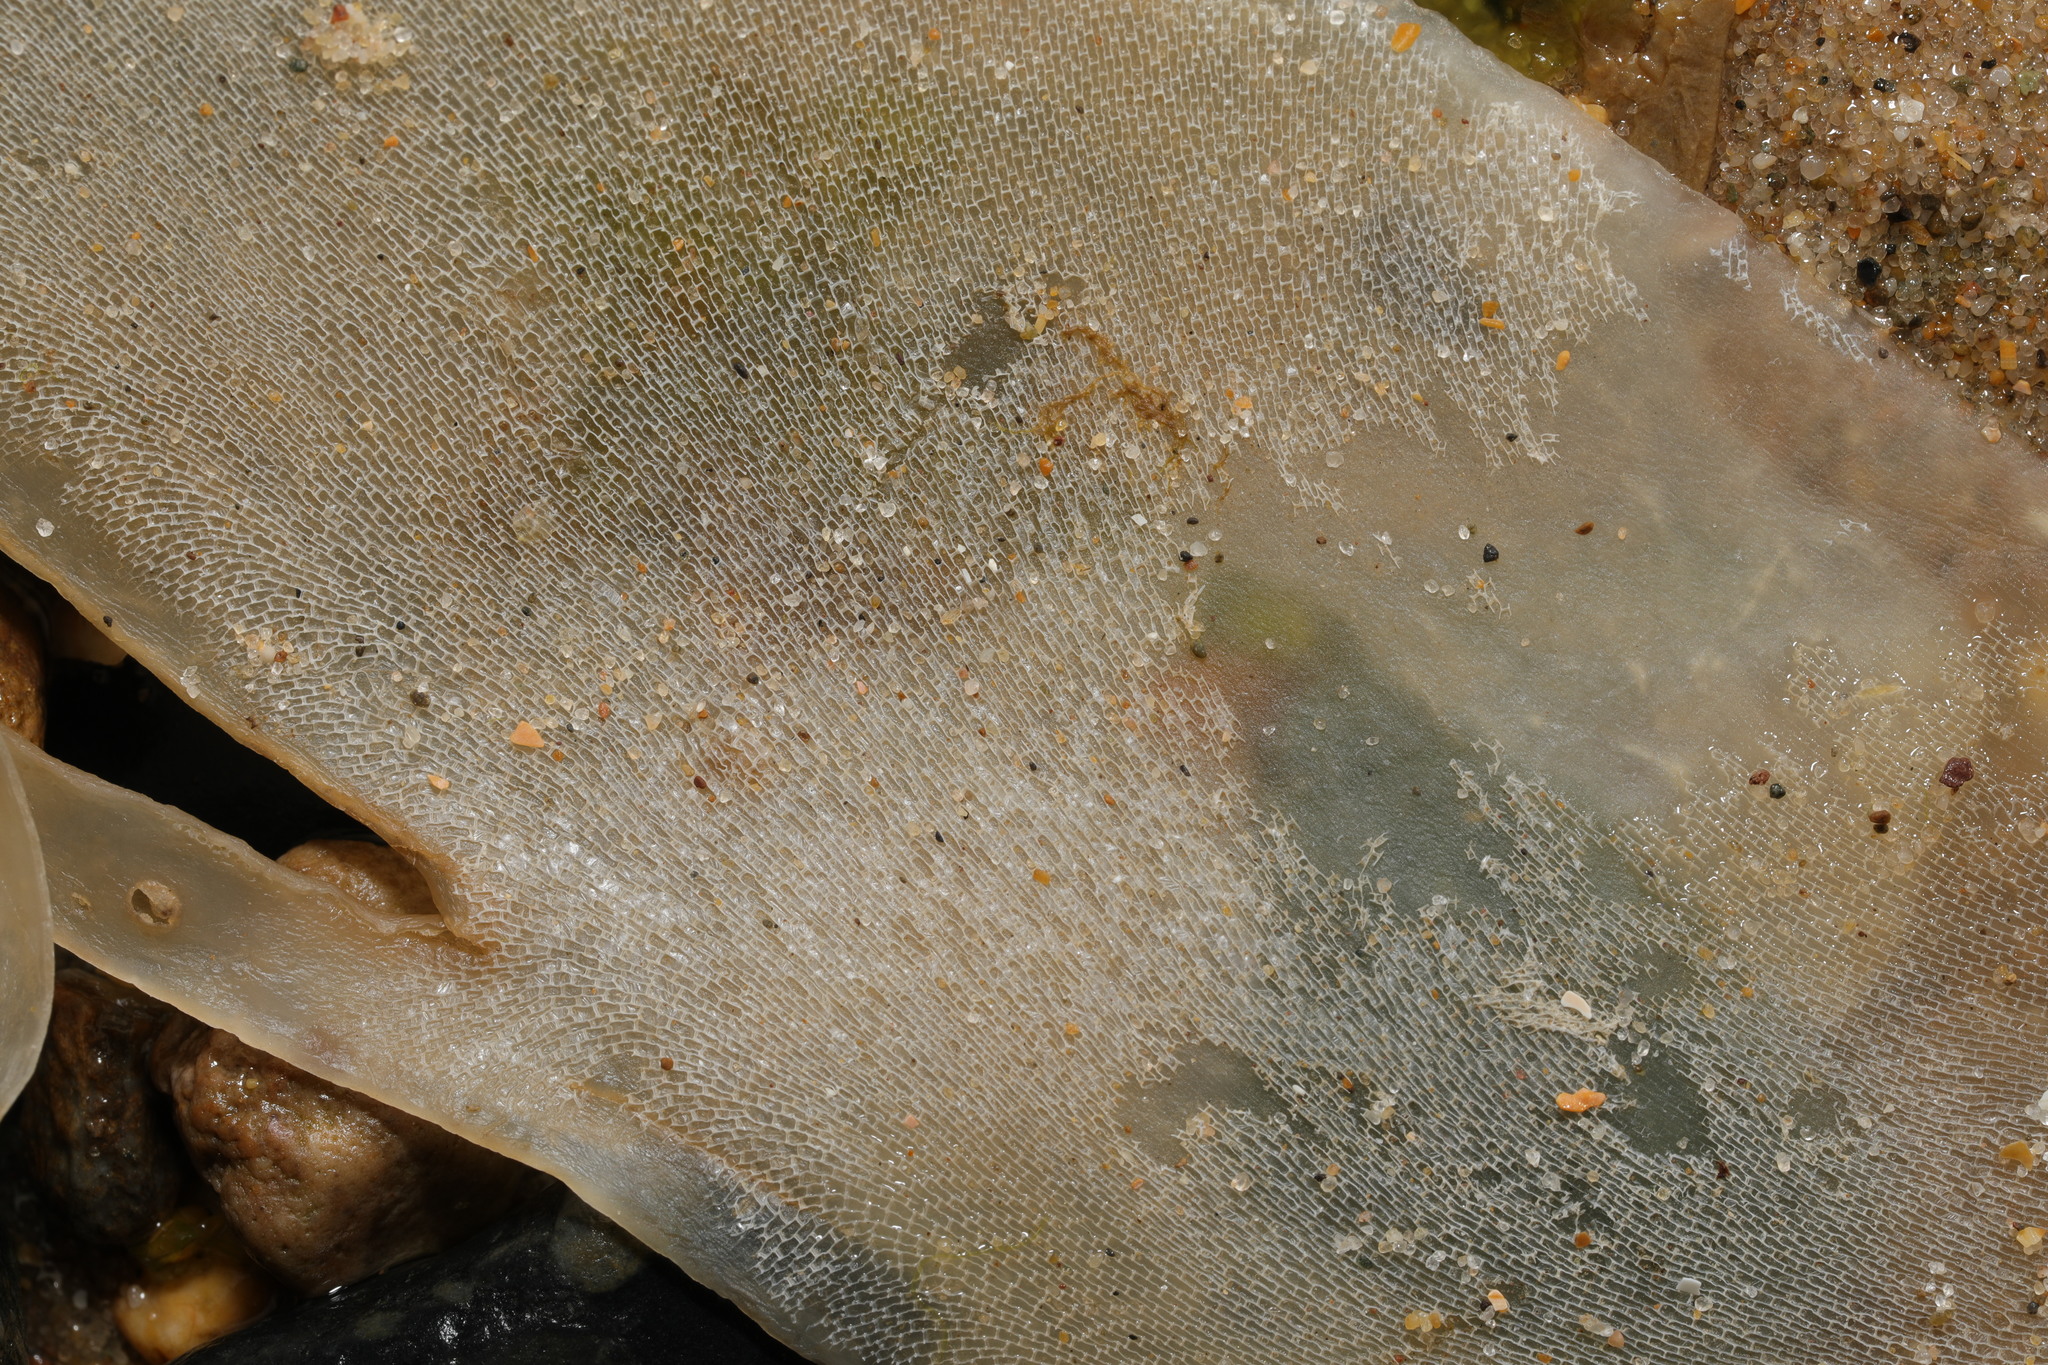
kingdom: Animalia
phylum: Bryozoa
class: Gymnolaemata
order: Cheilostomatida
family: Membraniporidae
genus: Membranipora
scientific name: Membranipora membranacea
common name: Sea mat
